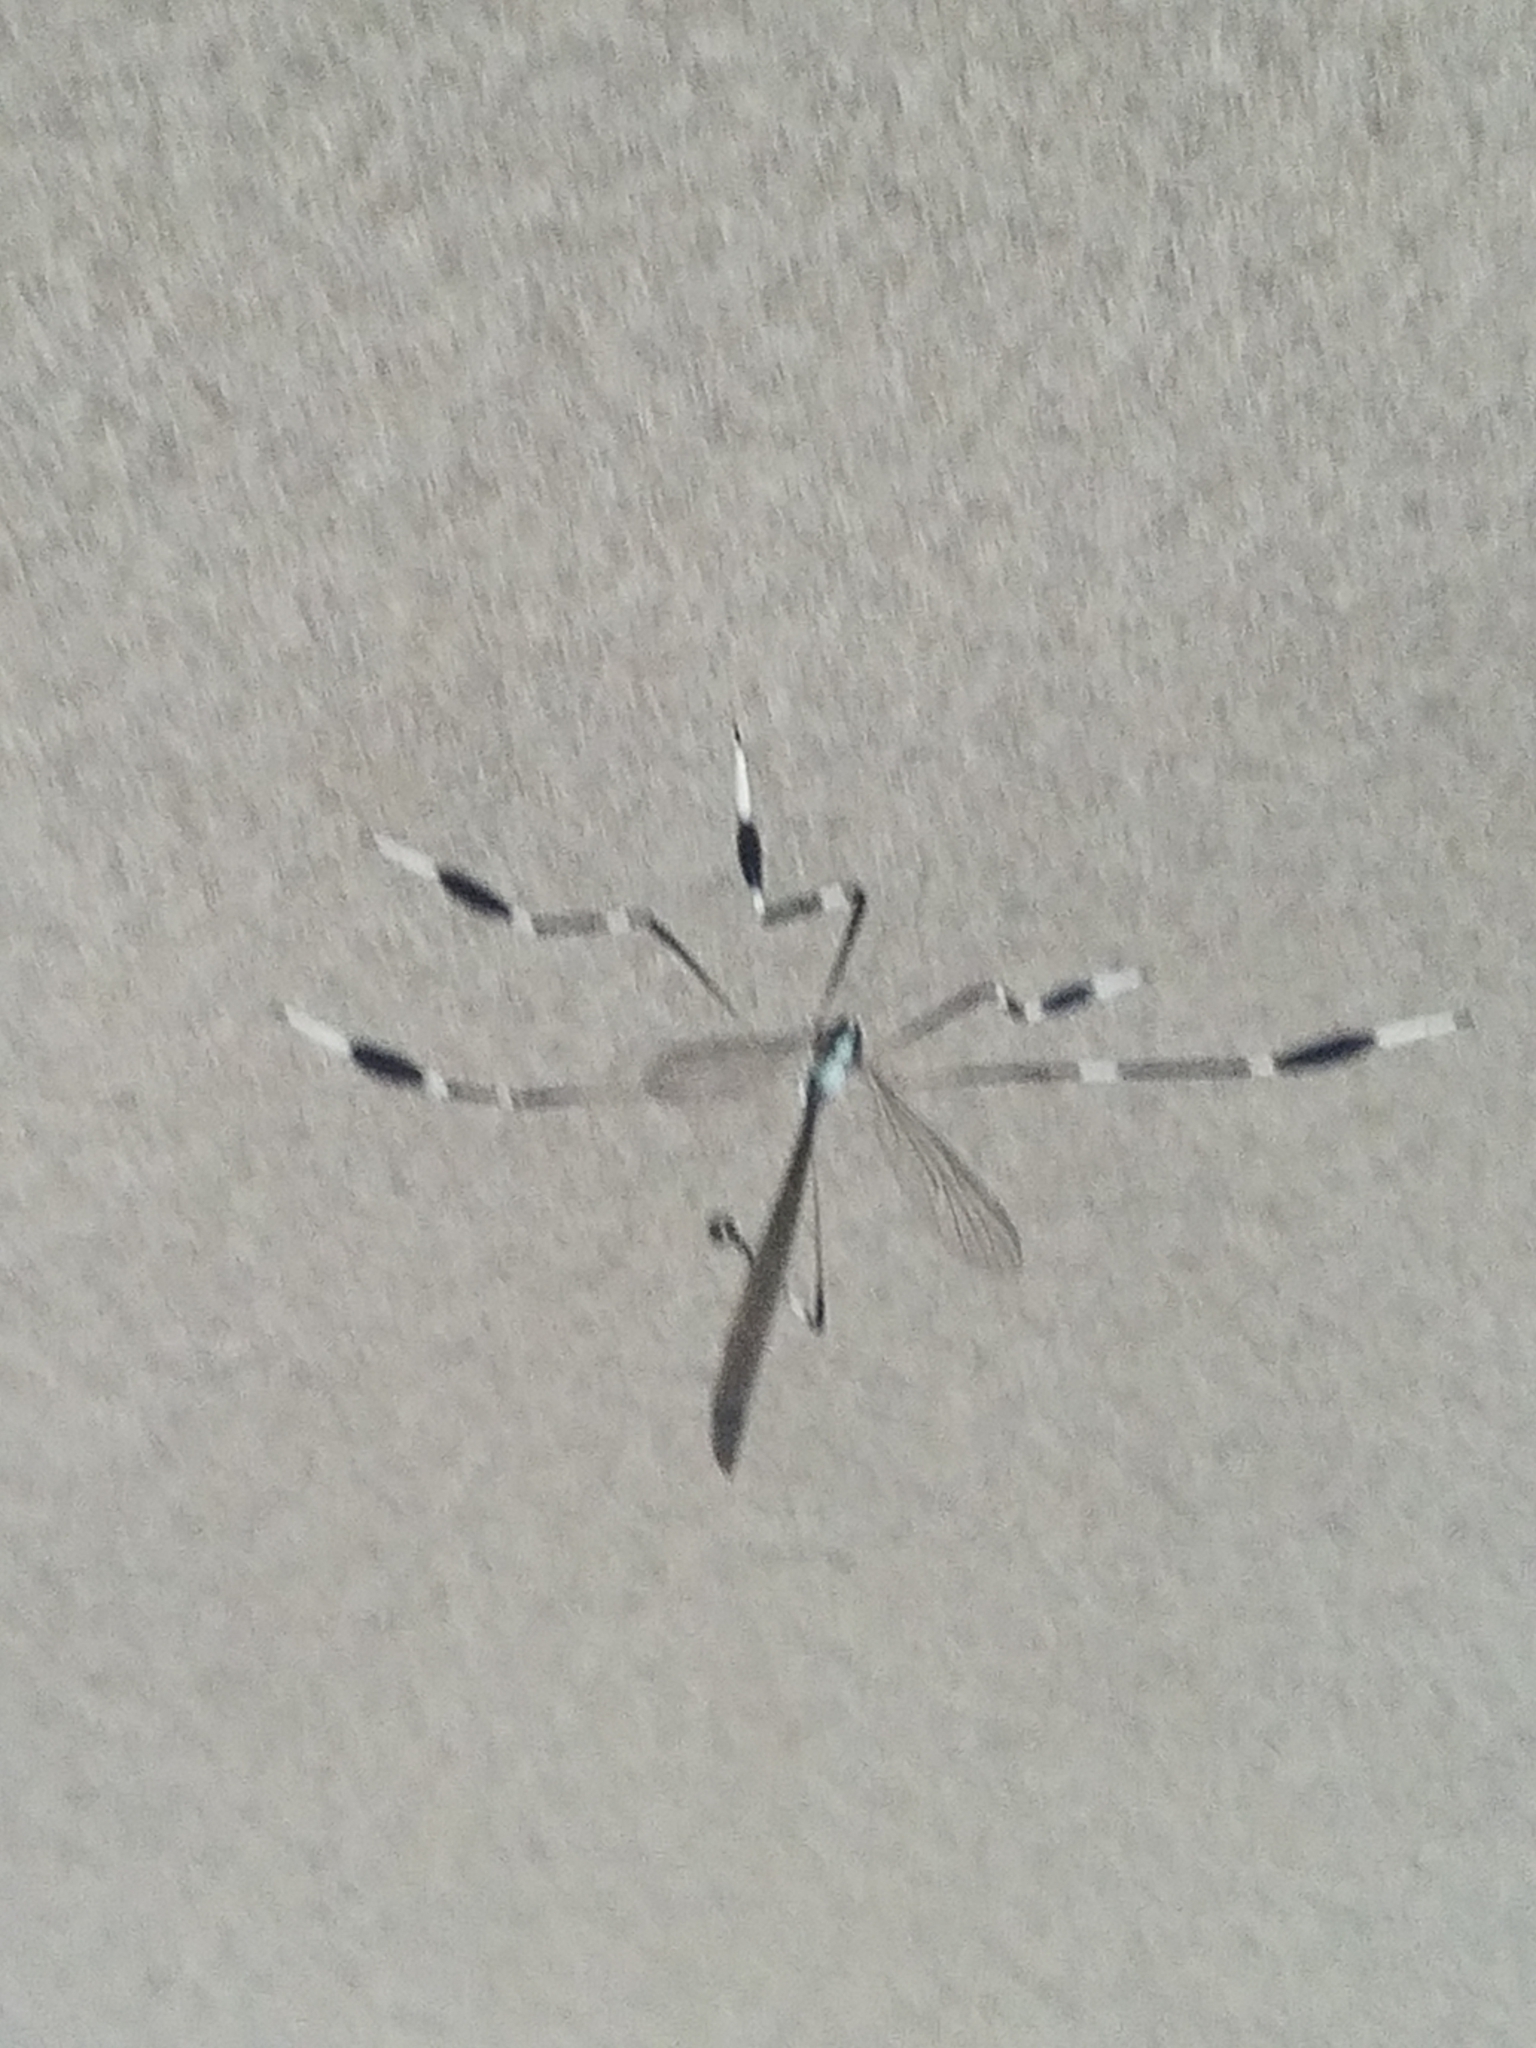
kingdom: Animalia
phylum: Arthropoda
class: Insecta
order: Diptera
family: Ptychopteridae
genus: Bittacomorpha
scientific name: Bittacomorpha clavipes
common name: Eastern phantom crane fly
